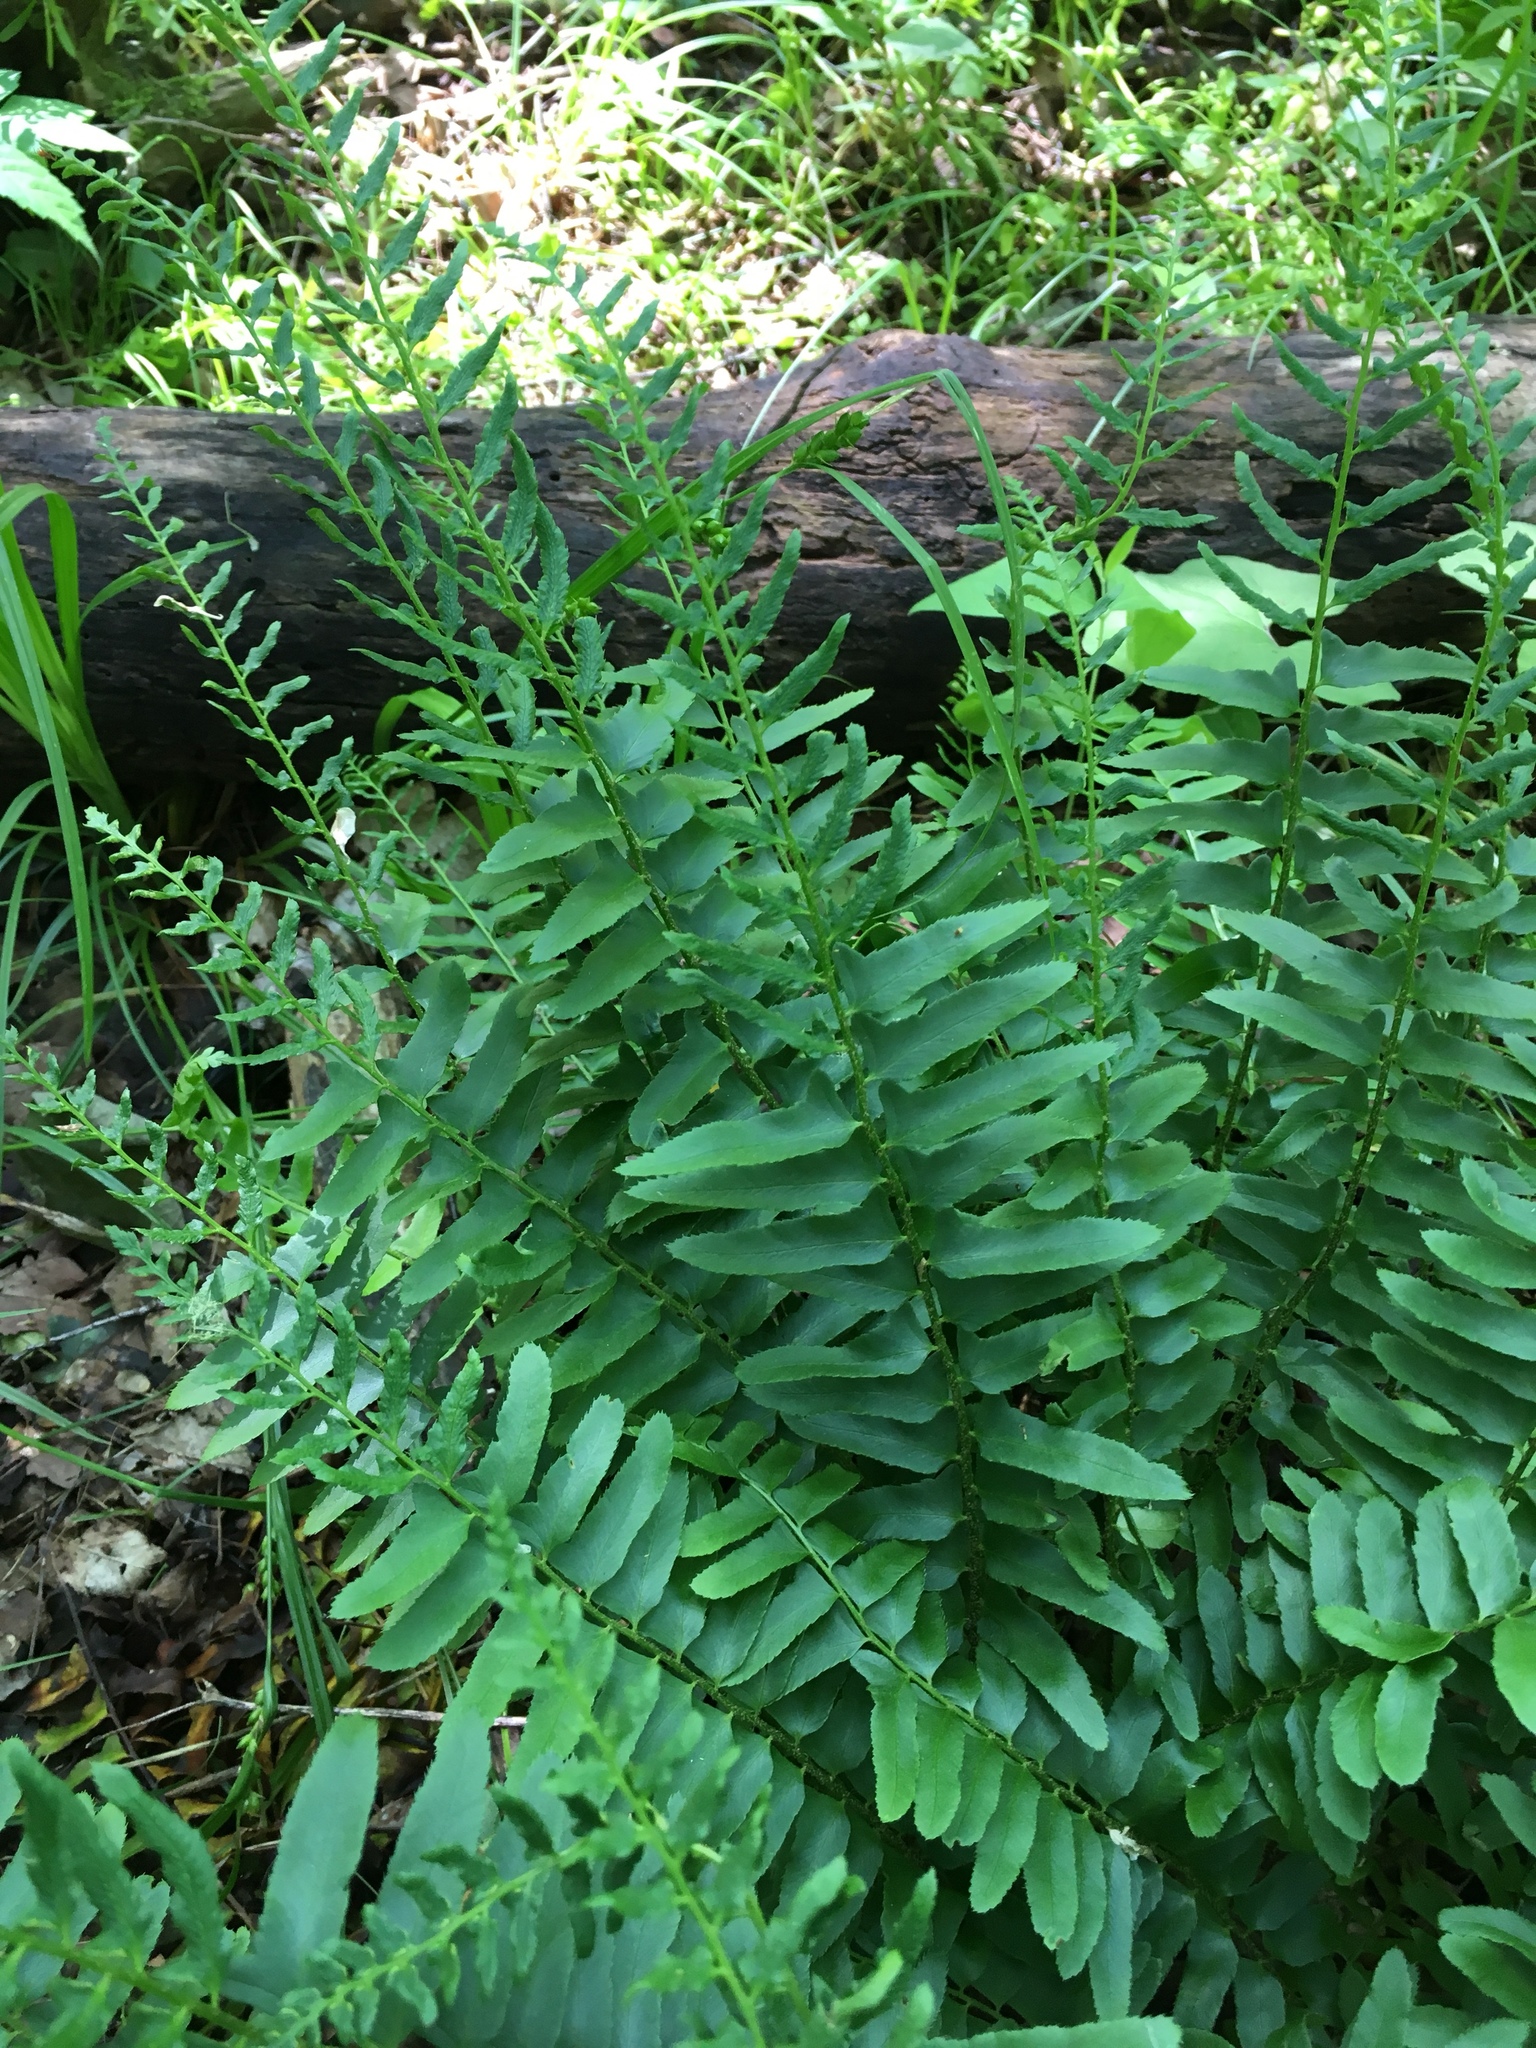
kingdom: Plantae
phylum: Tracheophyta
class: Polypodiopsida
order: Polypodiales
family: Dryopteridaceae
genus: Polystichum
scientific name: Polystichum acrostichoides
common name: Christmas fern
